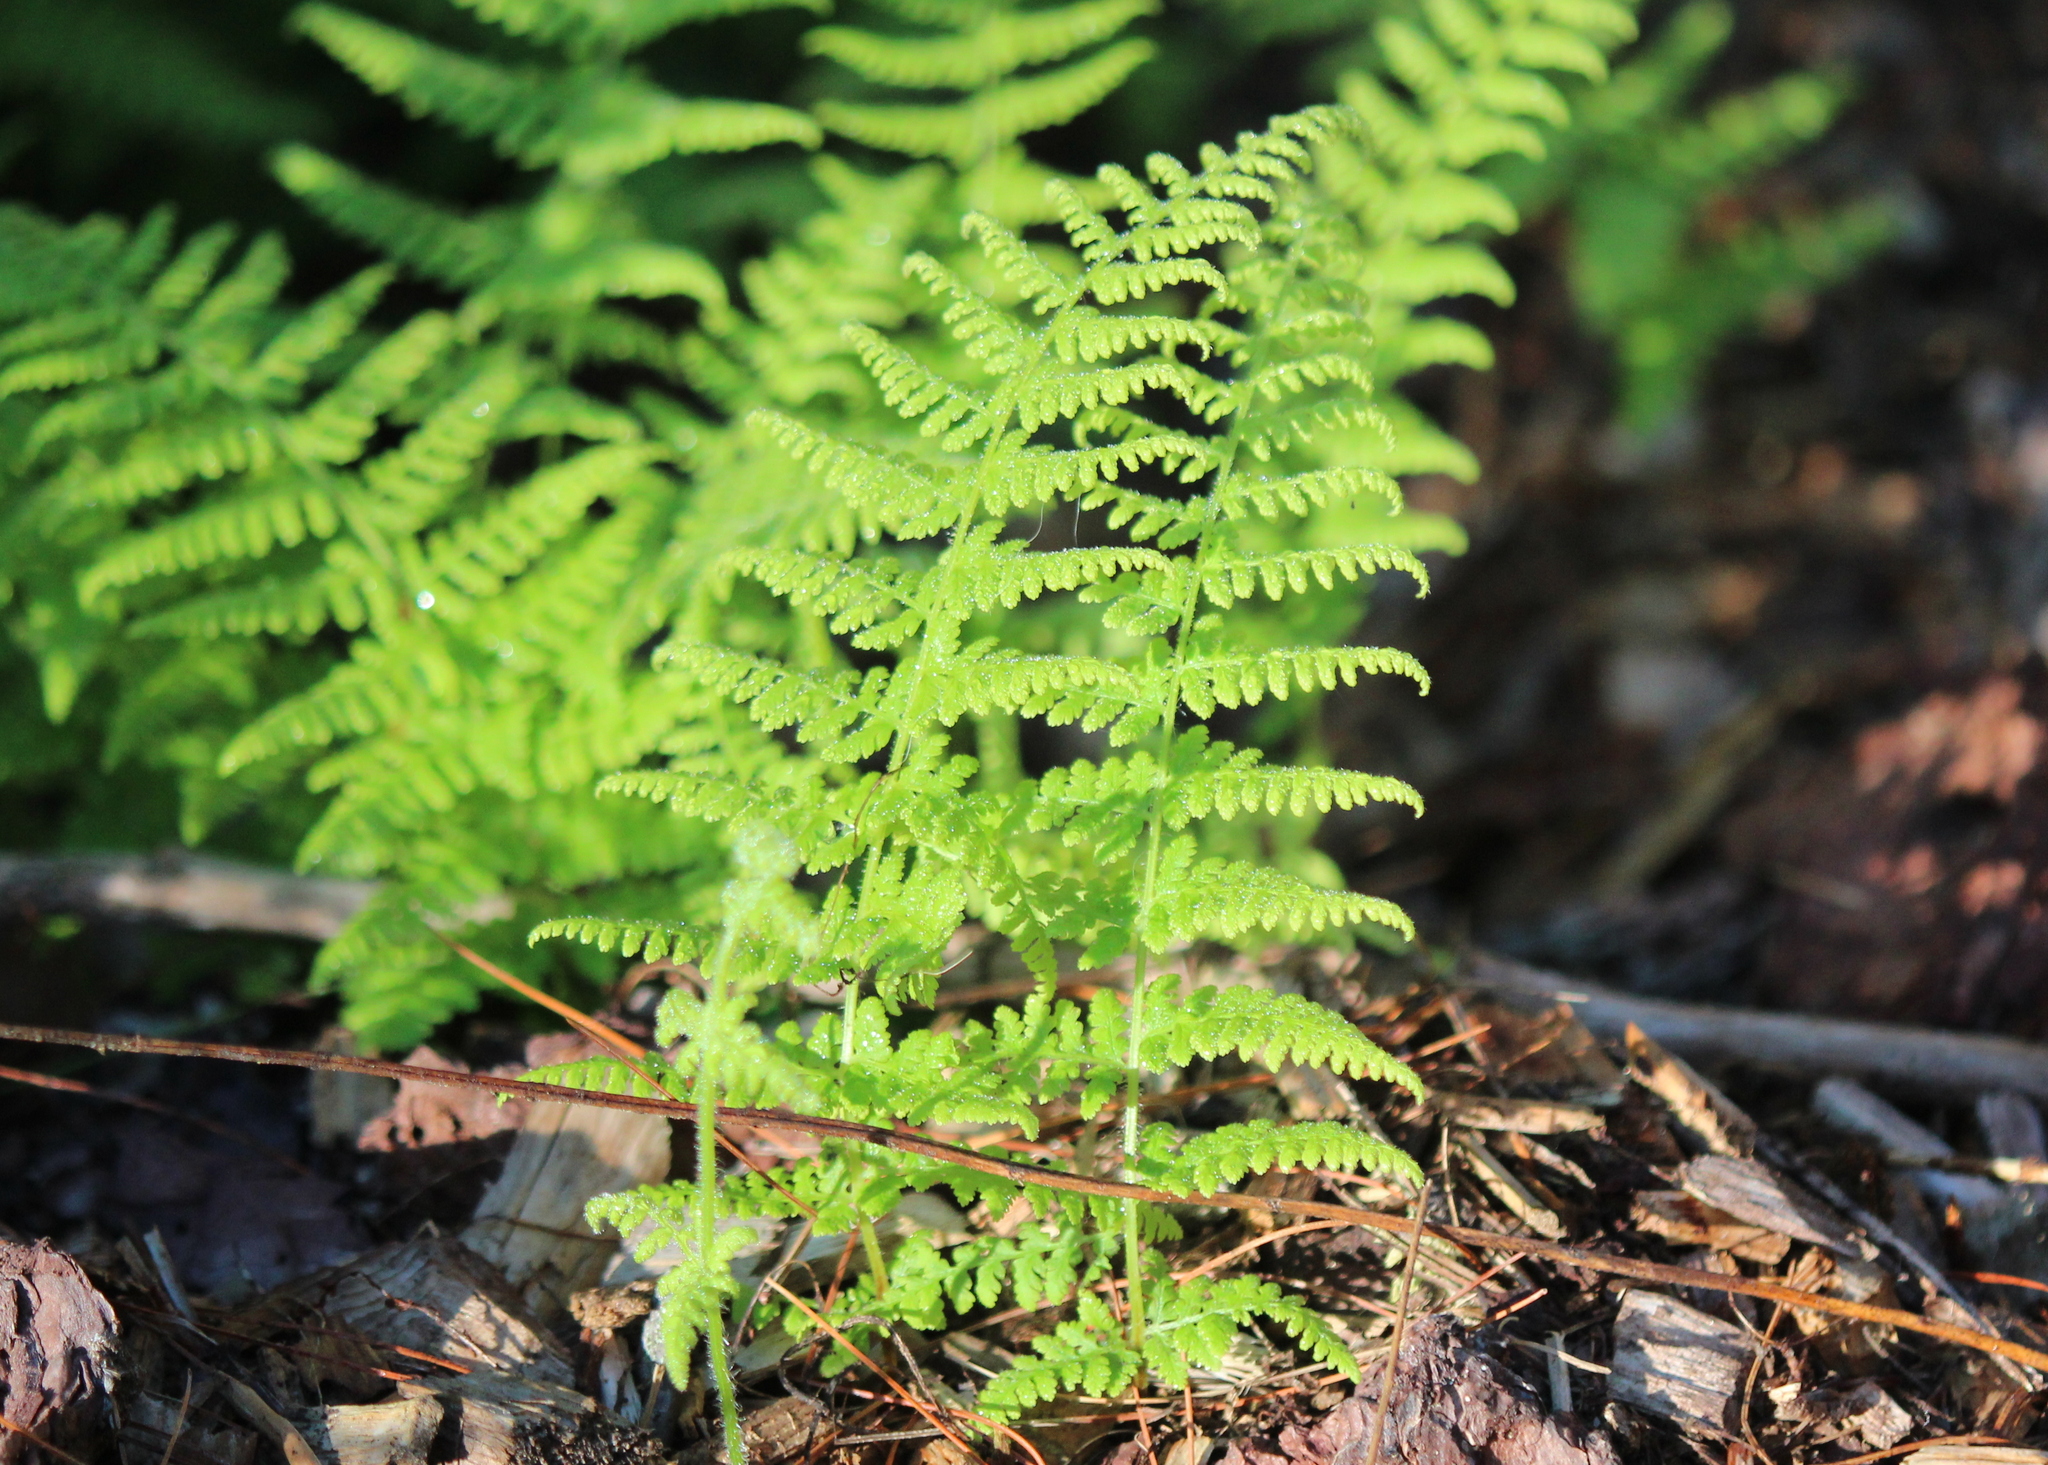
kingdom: Plantae
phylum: Tracheophyta
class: Polypodiopsida
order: Polypodiales
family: Dennstaedtiaceae
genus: Sitobolium
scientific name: Sitobolium punctilobum
